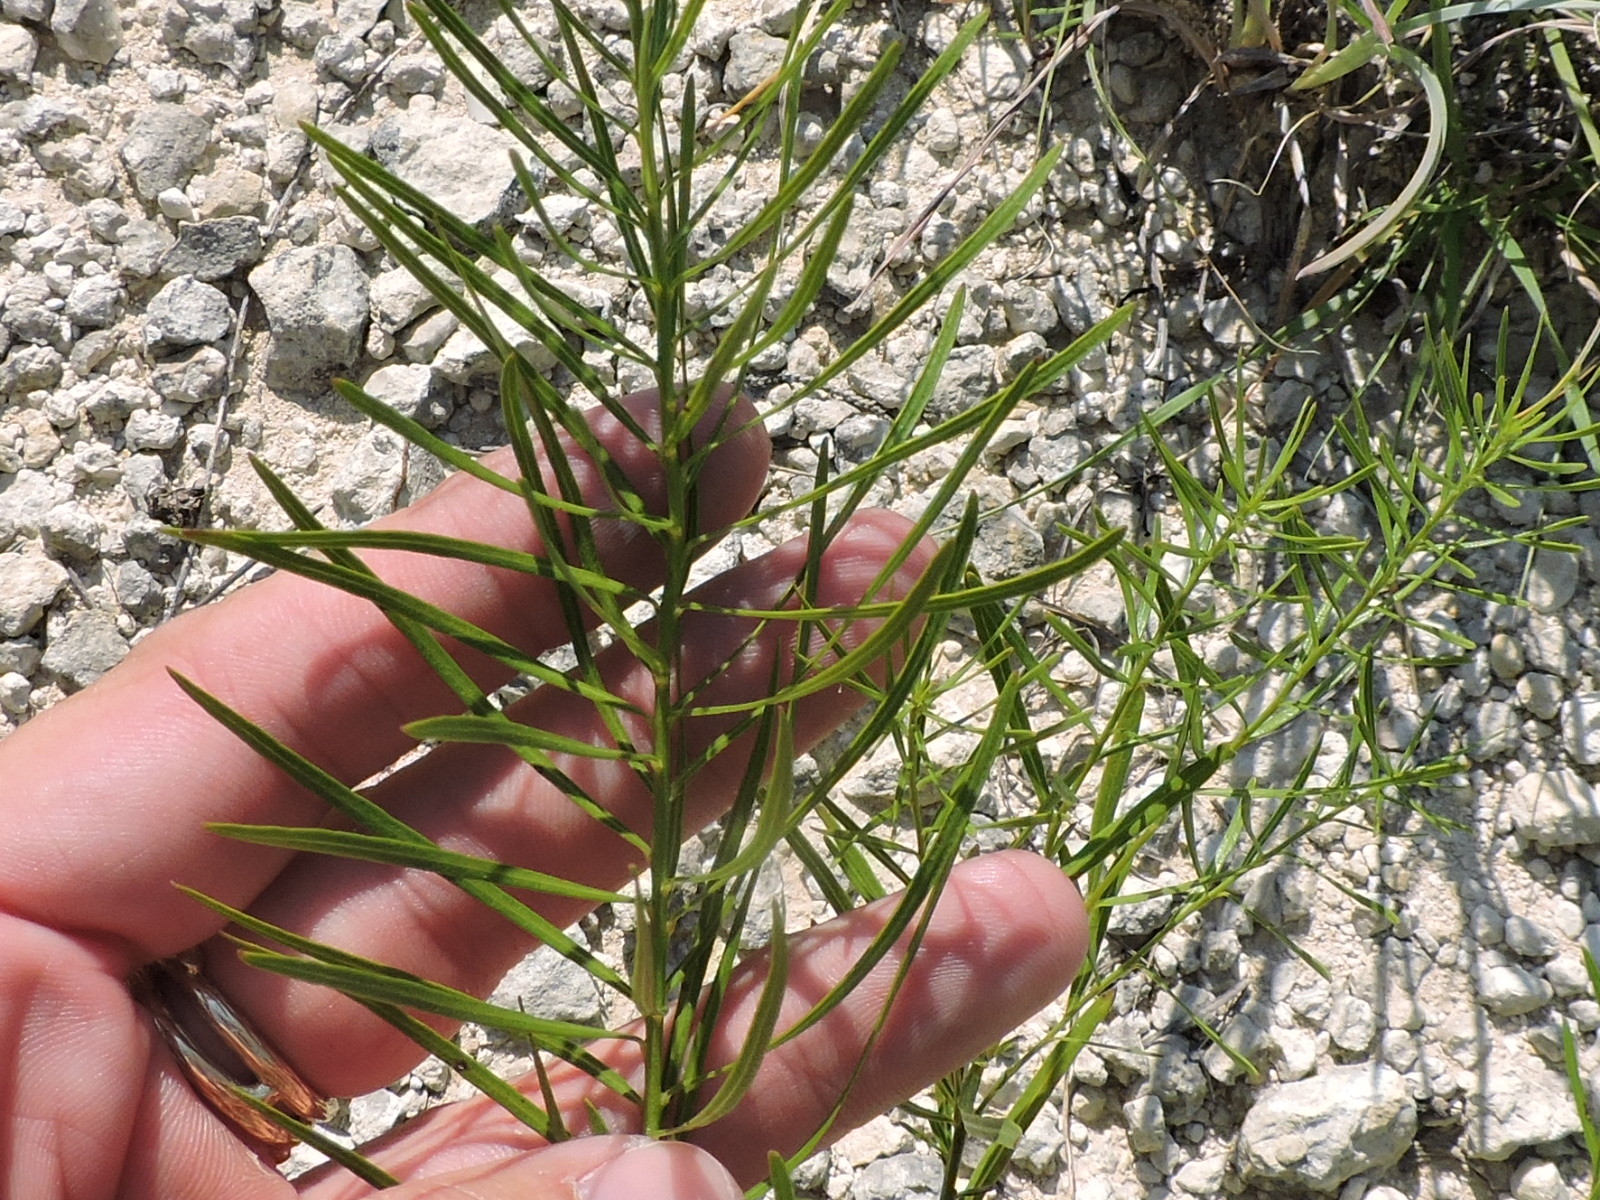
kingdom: Plantae
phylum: Tracheophyta
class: Magnoliopsida
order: Gentianales
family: Apocynaceae
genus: Amsonia
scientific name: Amsonia ciliata
